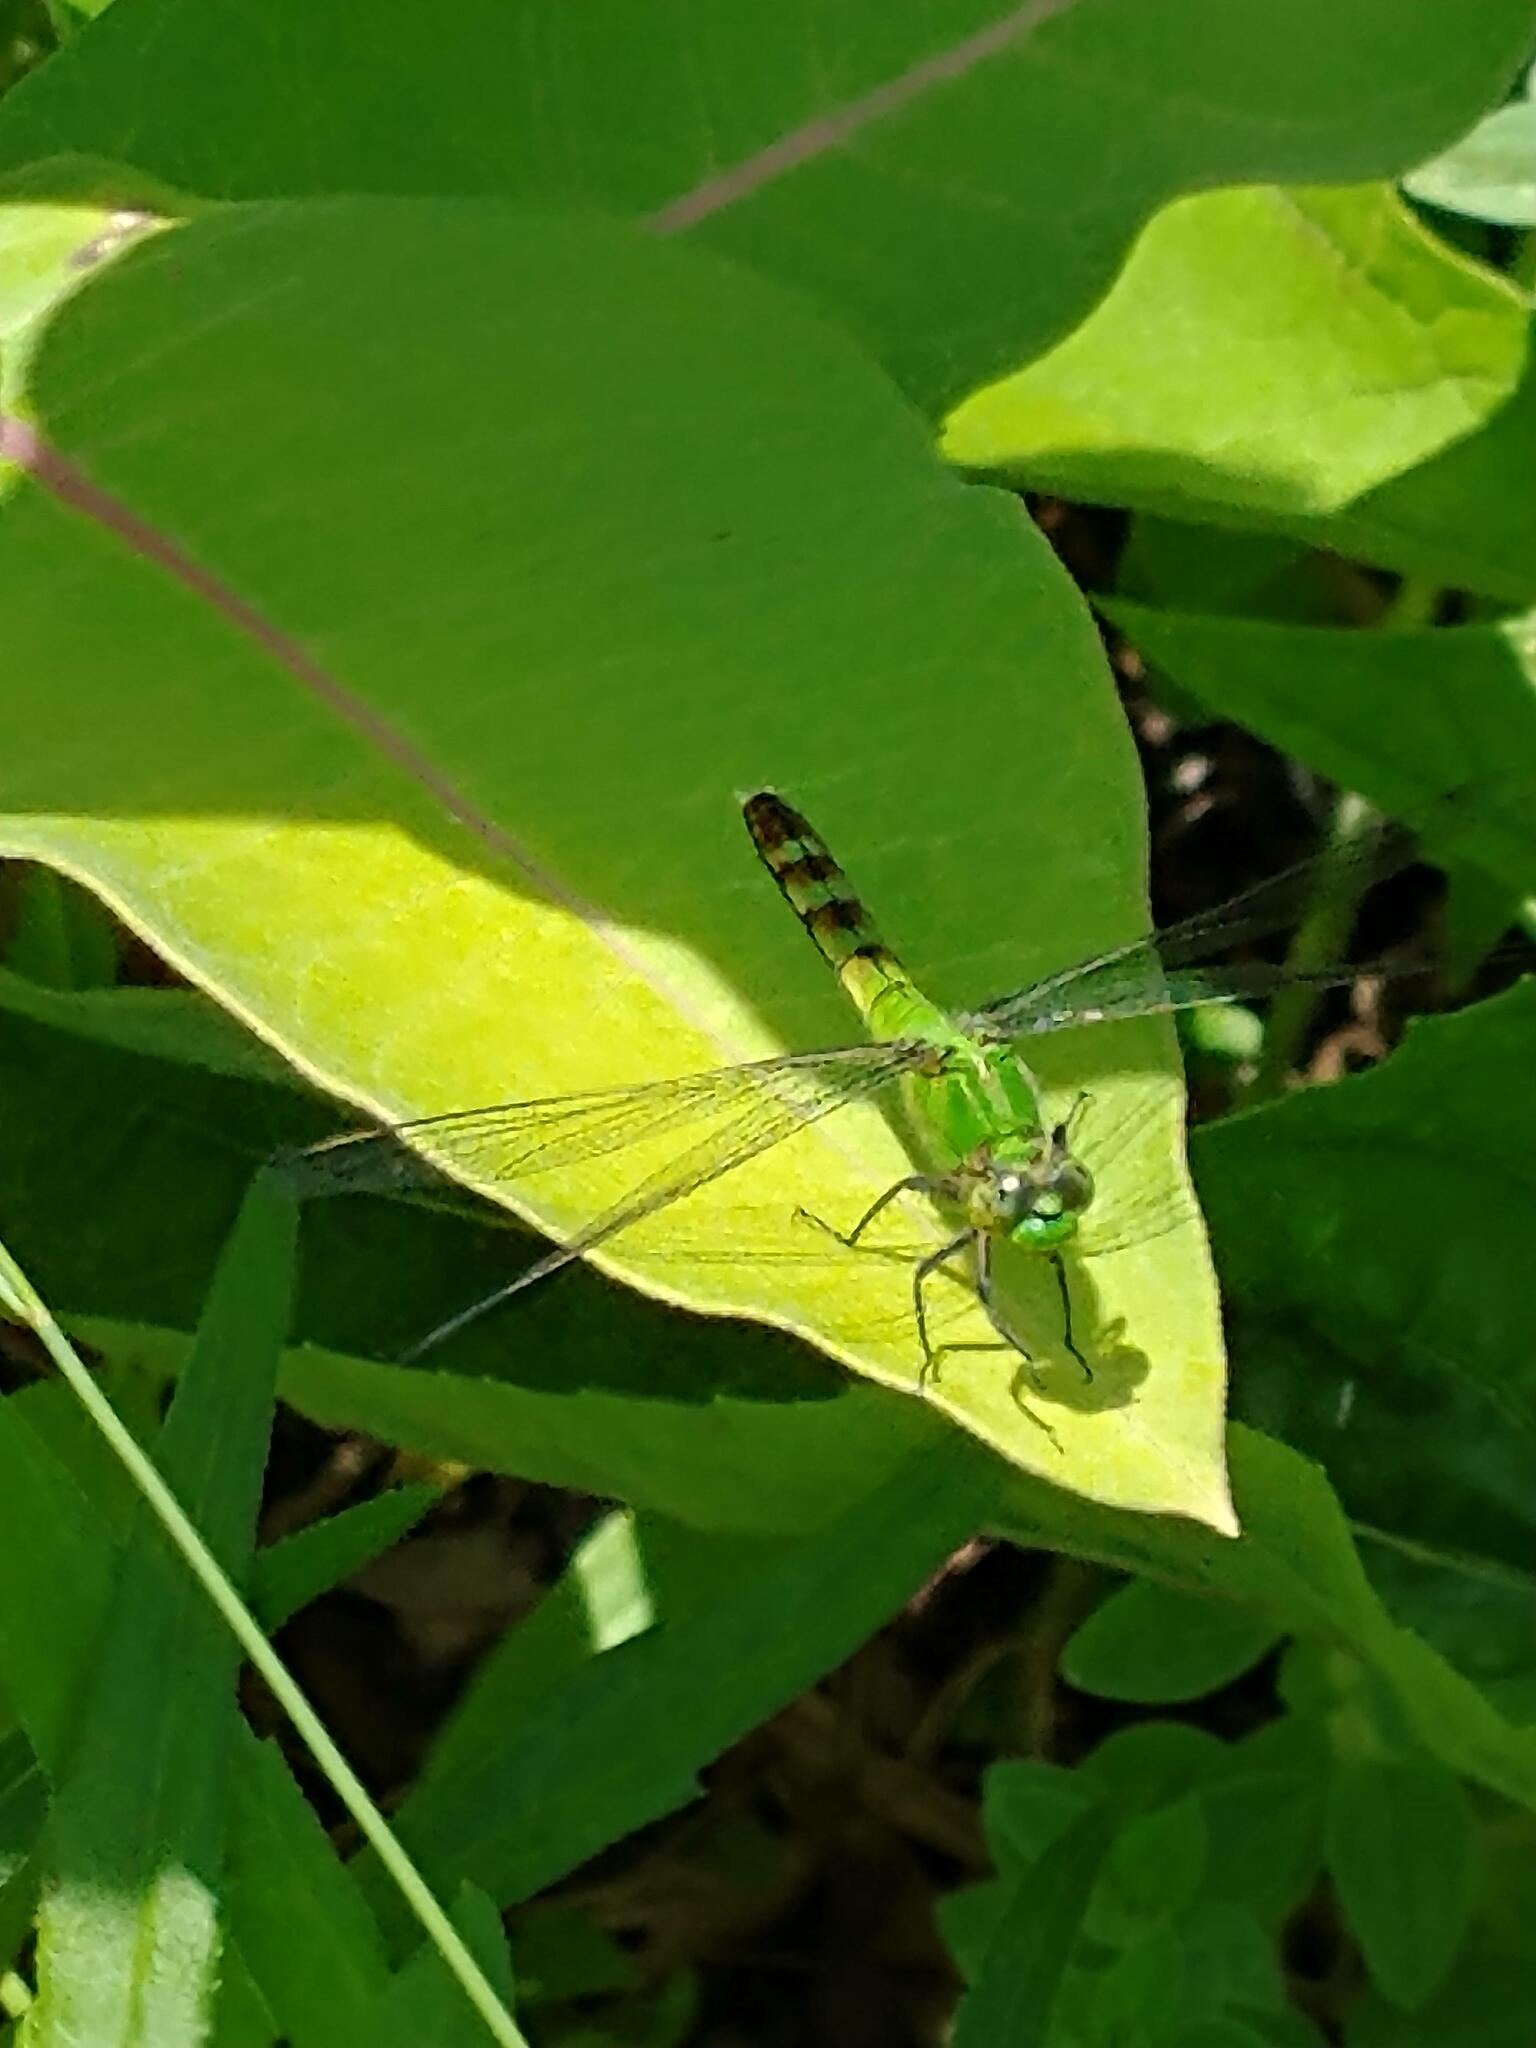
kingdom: Animalia
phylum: Arthropoda
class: Insecta
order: Odonata
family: Libellulidae
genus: Erythemis
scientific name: Erythemis simplicicollis
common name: Eastern pondhawk
